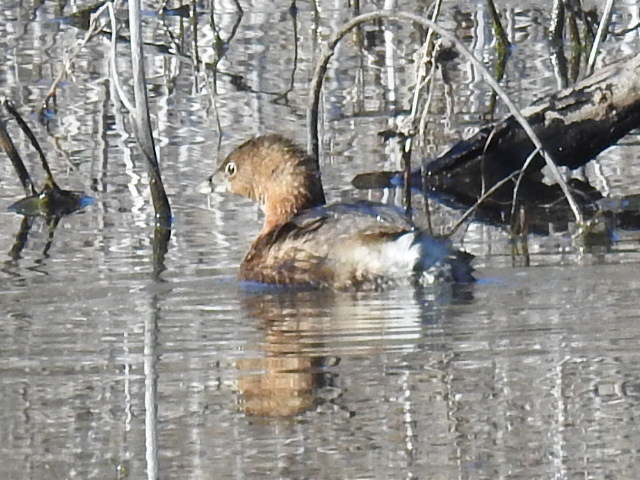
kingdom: Animalia
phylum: Chordata
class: Aves
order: Podicipediformes
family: Podicipedidae
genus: Podilymbus
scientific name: Podilymbus podiceps
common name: Pied-billed grebe
